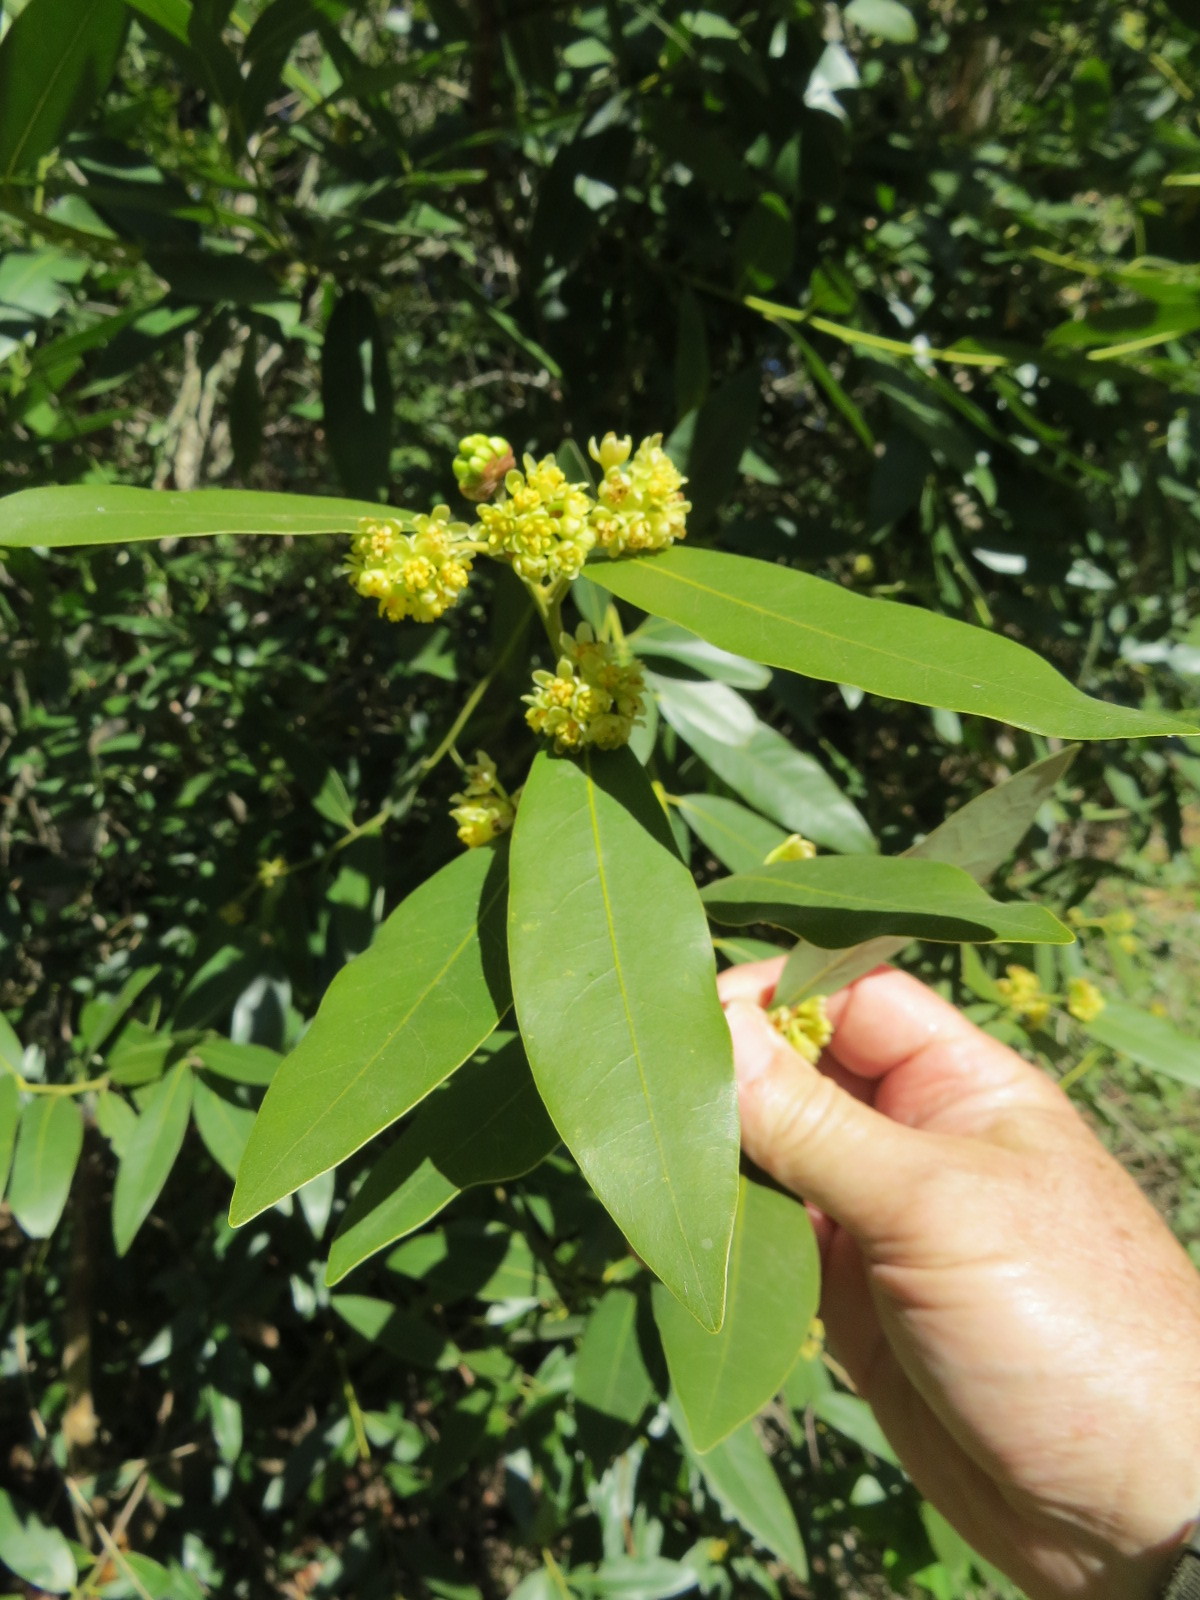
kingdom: Plantae
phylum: Tracheophyta
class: Magnoliopsida
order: Laurales
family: Lauraceae
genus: Umbellularia
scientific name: Umbellularia californica
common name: California bay
